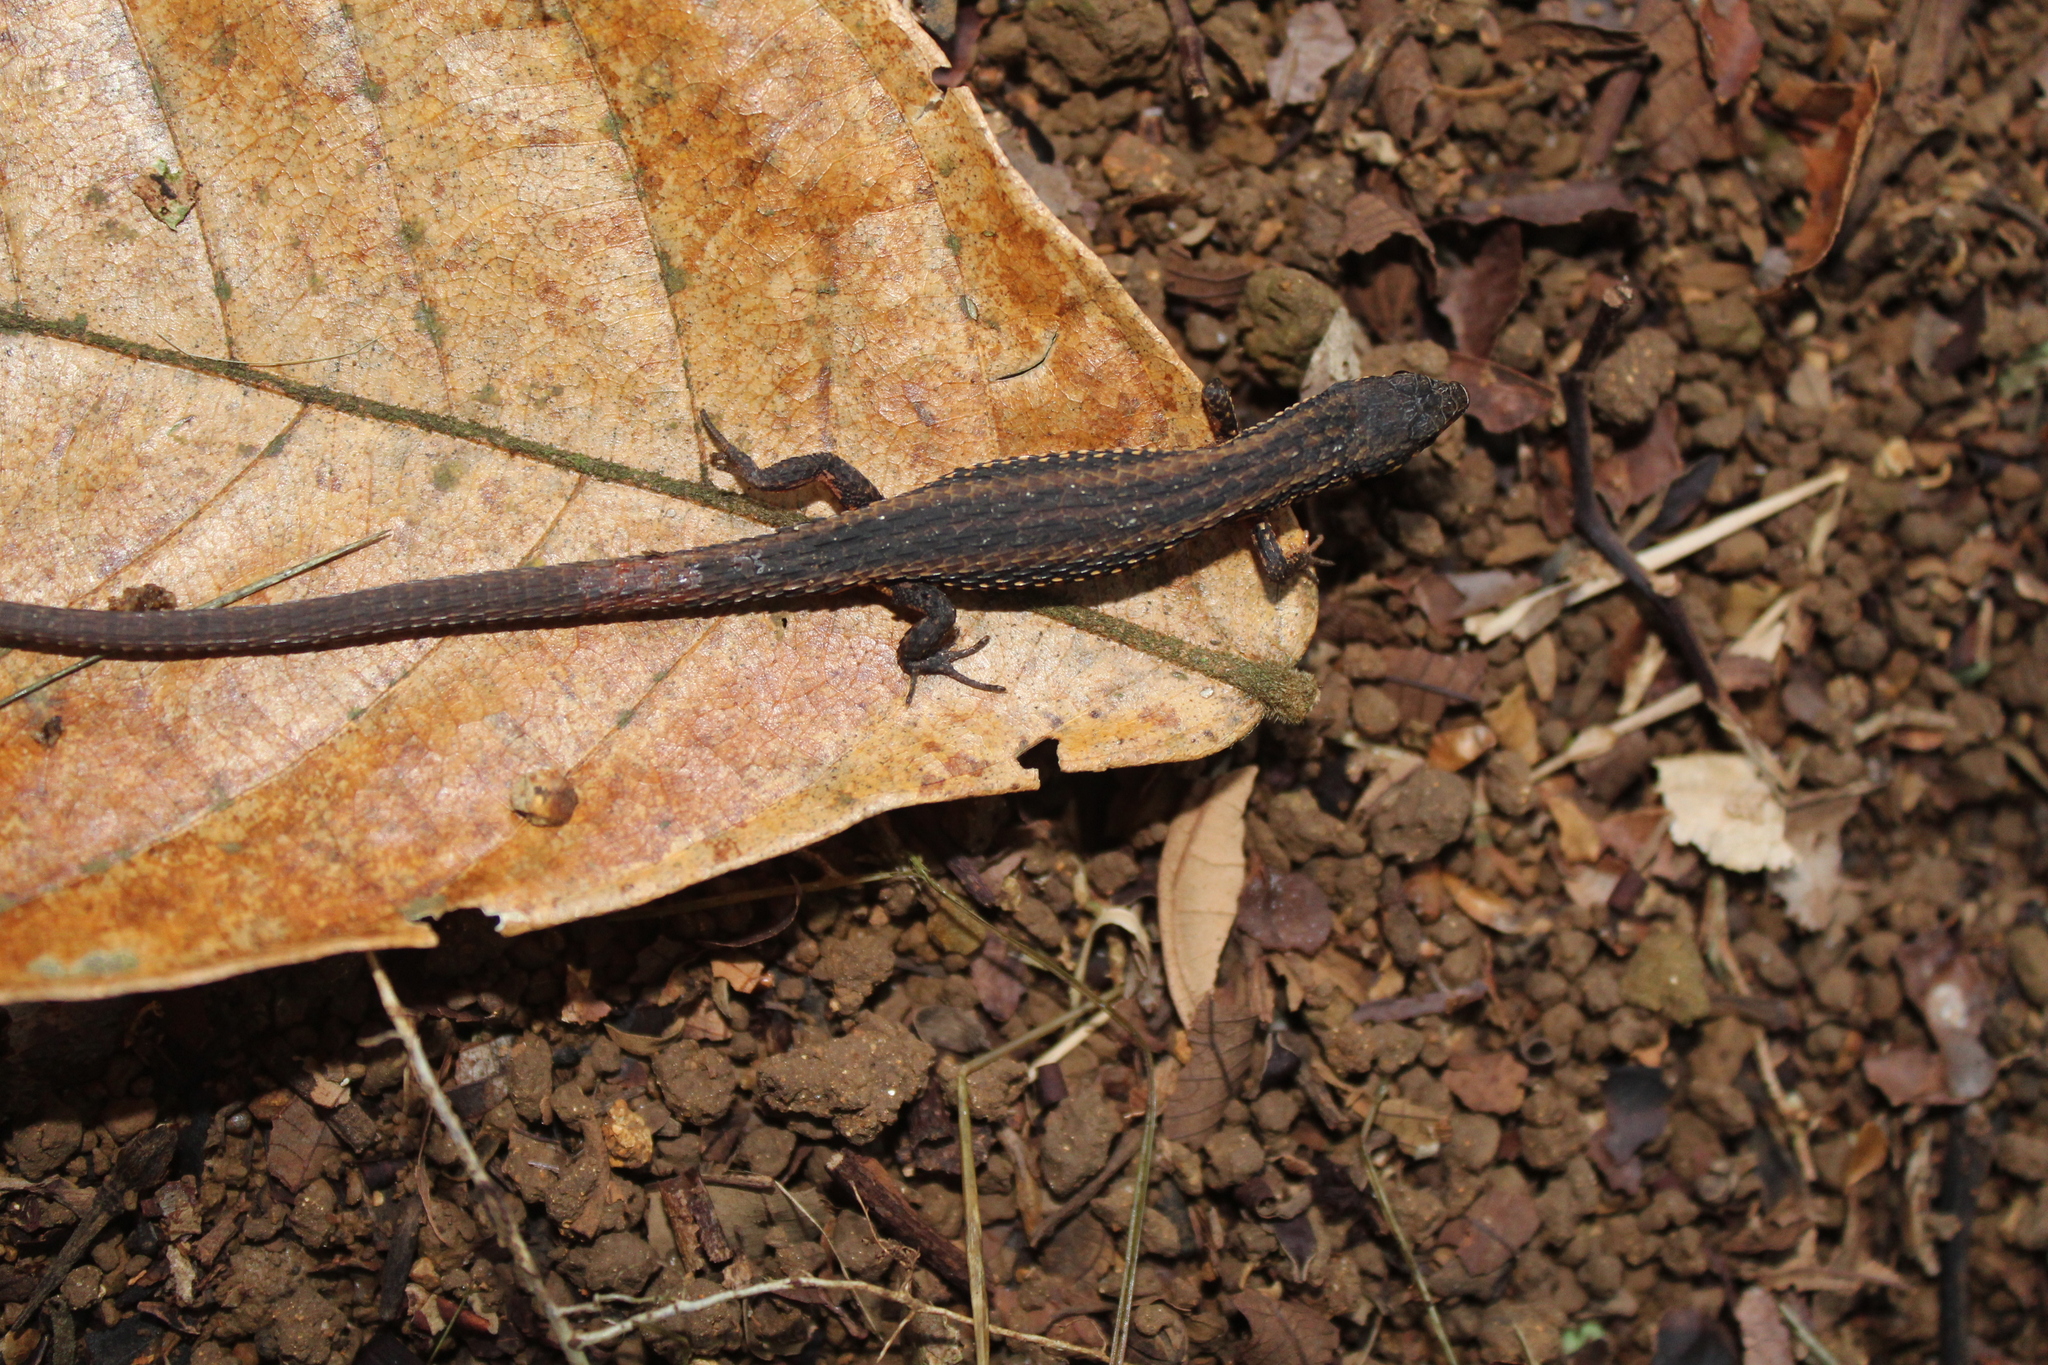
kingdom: Animalia
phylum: Chordata
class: Squamata
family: Gymnophthalmidae
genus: Loxopholis
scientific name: Loxopholis rugiceps
